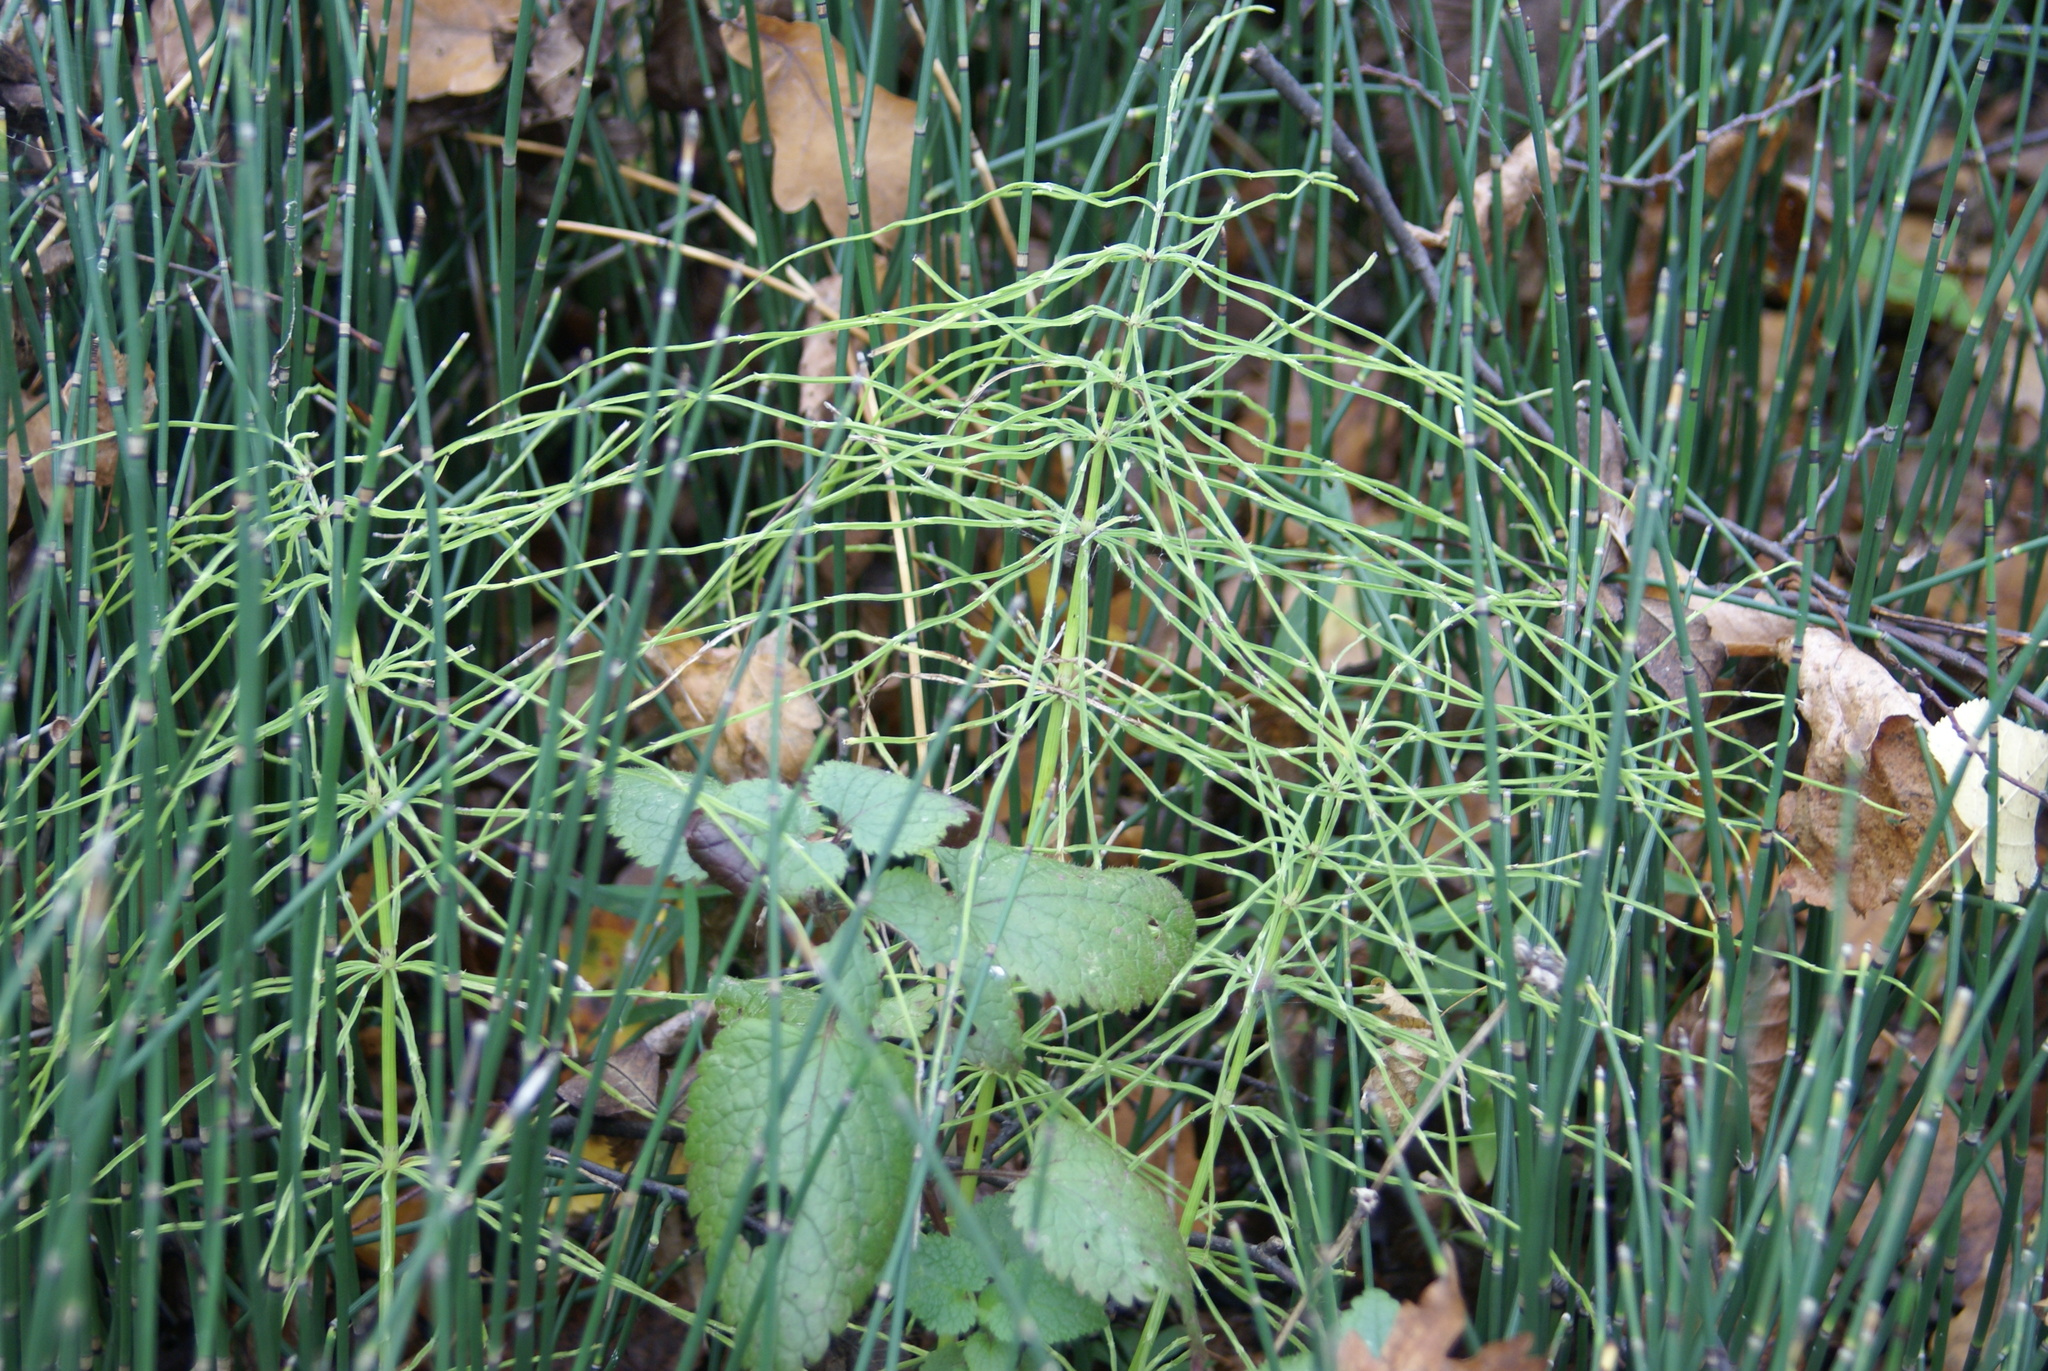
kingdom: Plantae
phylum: Tracheophyta
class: Polypodiopsida
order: Equisetales
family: Equisetaceae
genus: Equisetum
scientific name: Equisetum hyemale
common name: Rough horsetail
